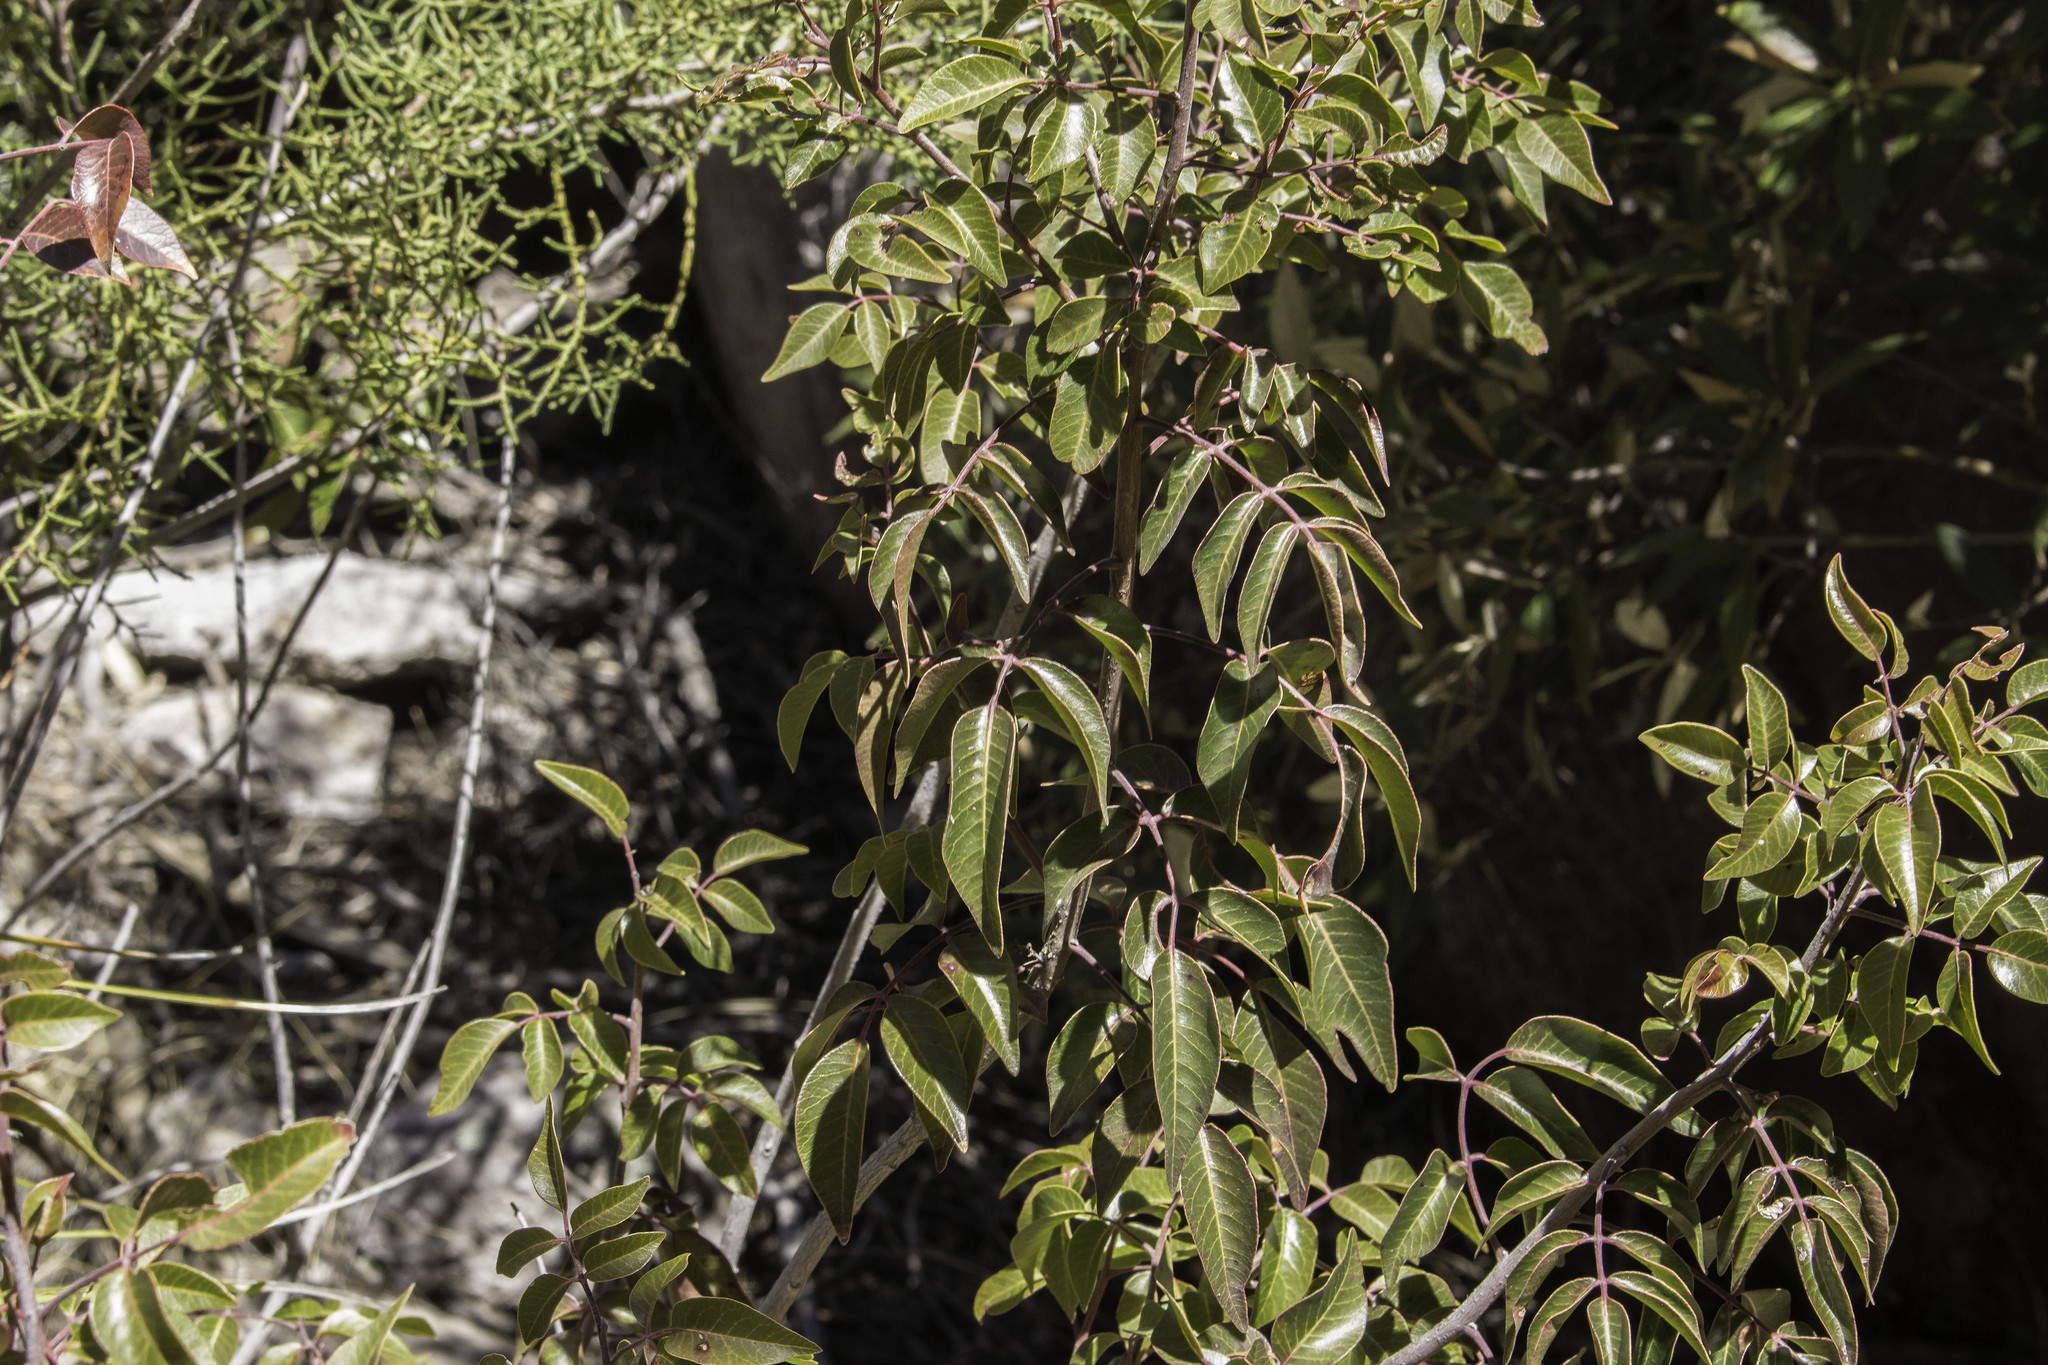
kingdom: Plantae
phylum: Tracheophyta
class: Magnoliopsida
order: Sapindales
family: Anacardiaceae
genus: Rhus
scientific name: Rhus virens
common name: Evergreen sumac
